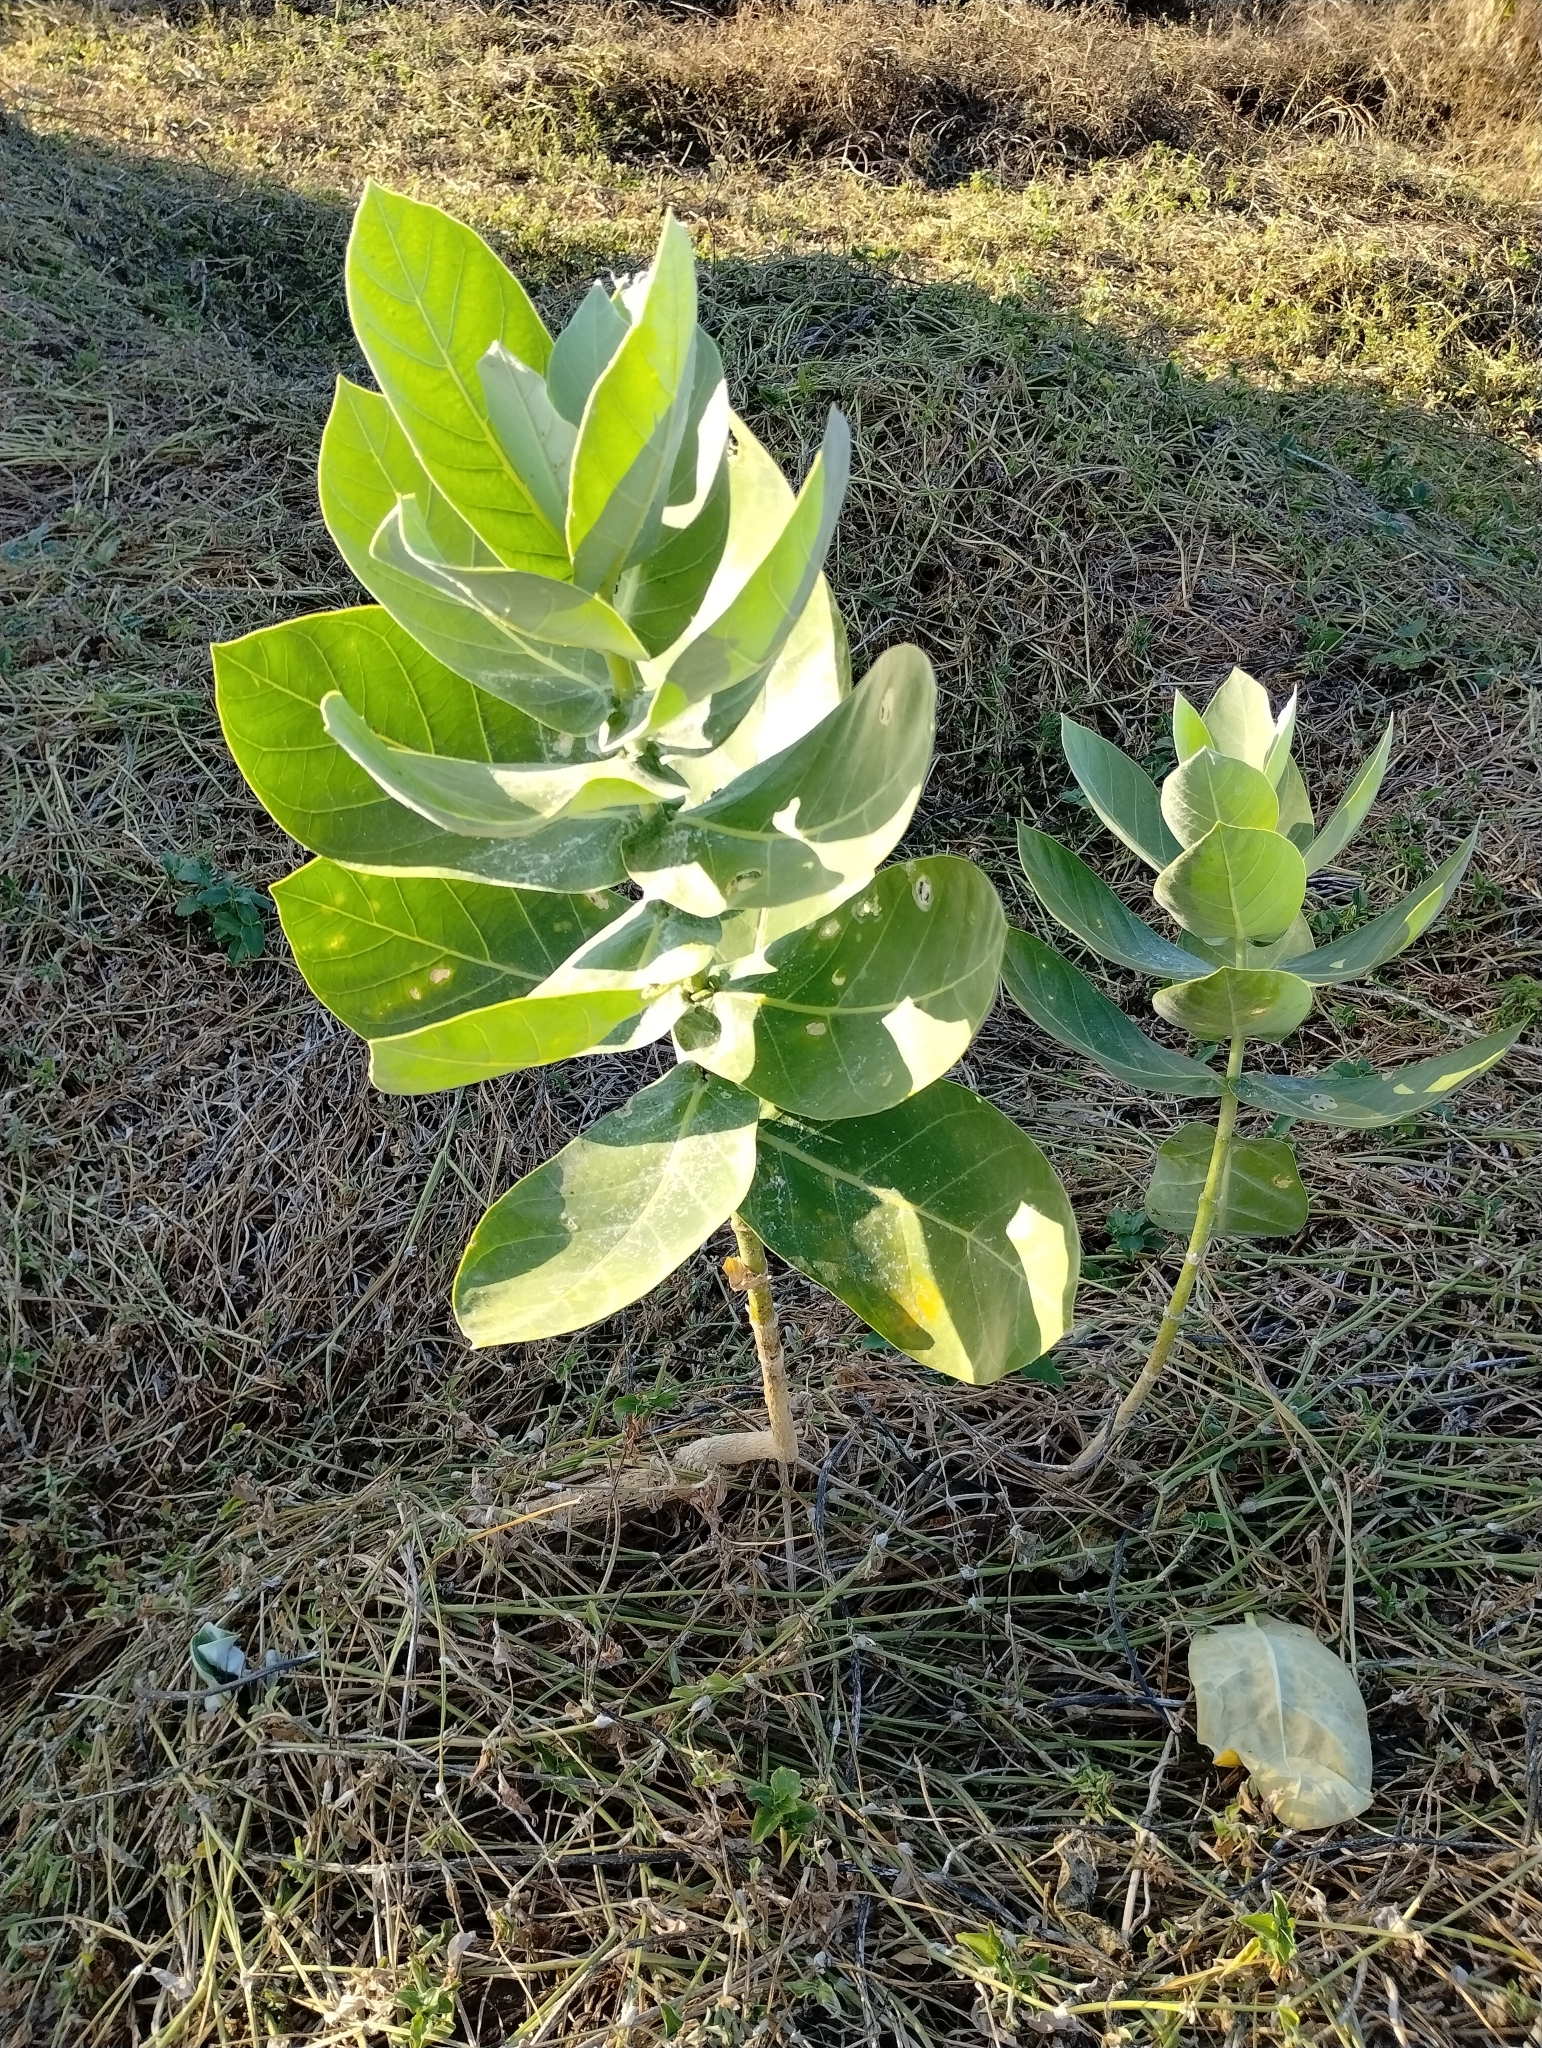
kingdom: Plantae
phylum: Tracheophyta
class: Magnoliopsida
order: Gentianales
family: Apocynaceae
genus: Calotropis
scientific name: Calotropis procera
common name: Roostertree
